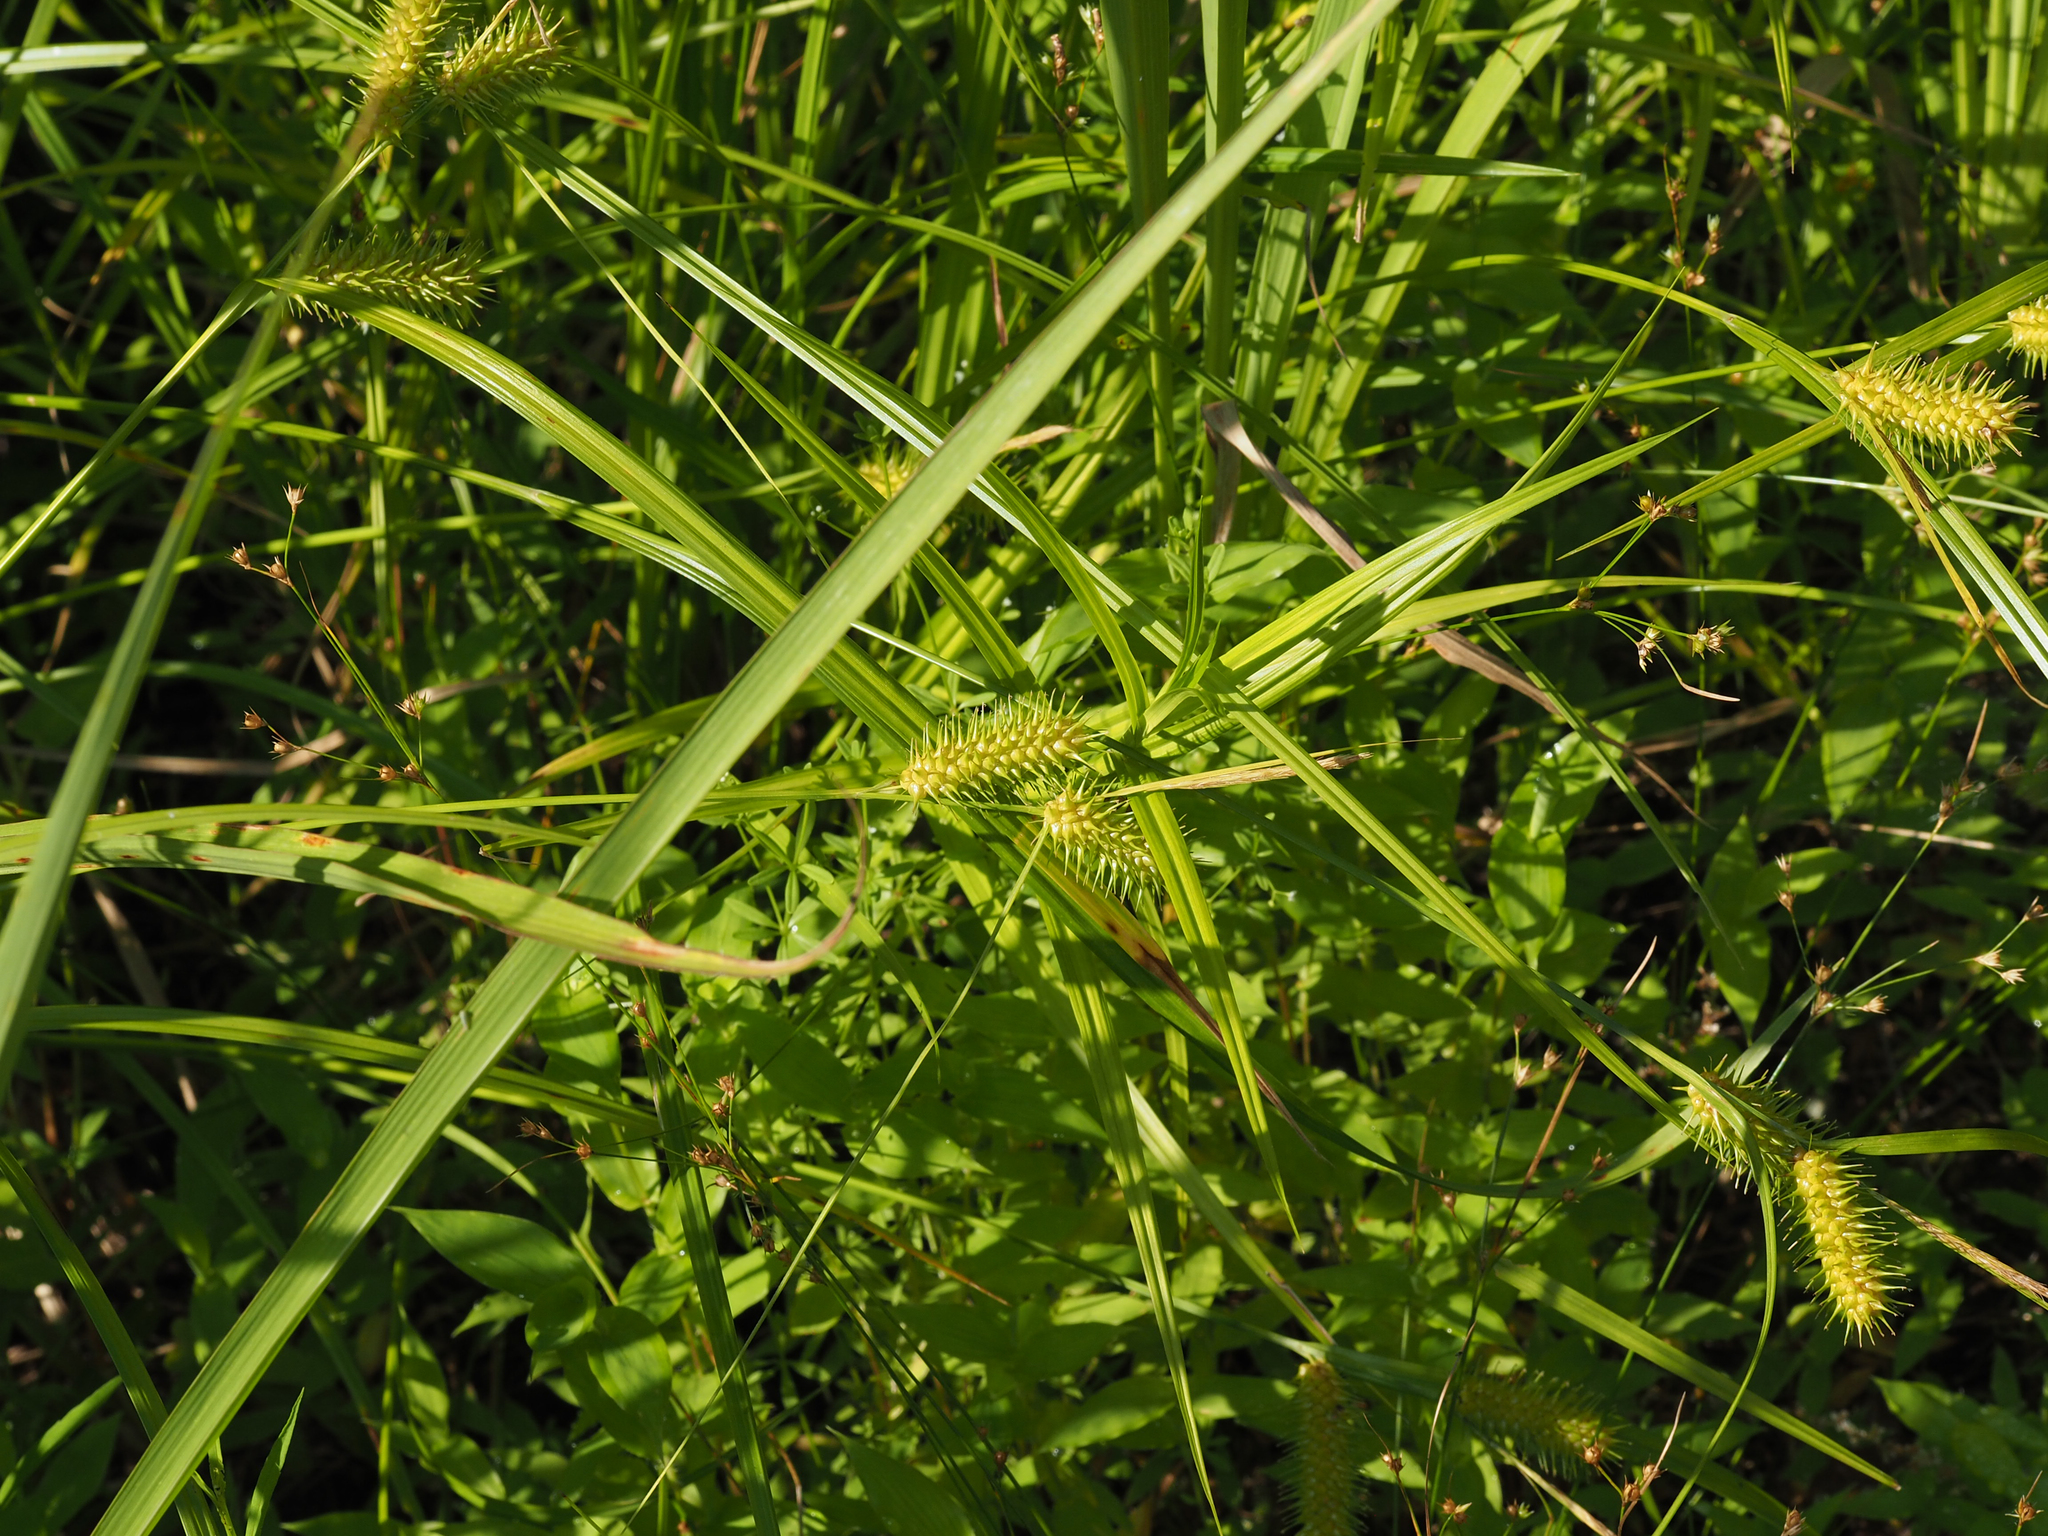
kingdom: Plantae
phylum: Tracheophyta
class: Liliopsida
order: Poales
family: Cyperaceae
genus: Carex
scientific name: Carex lurida
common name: Sallow sedge
